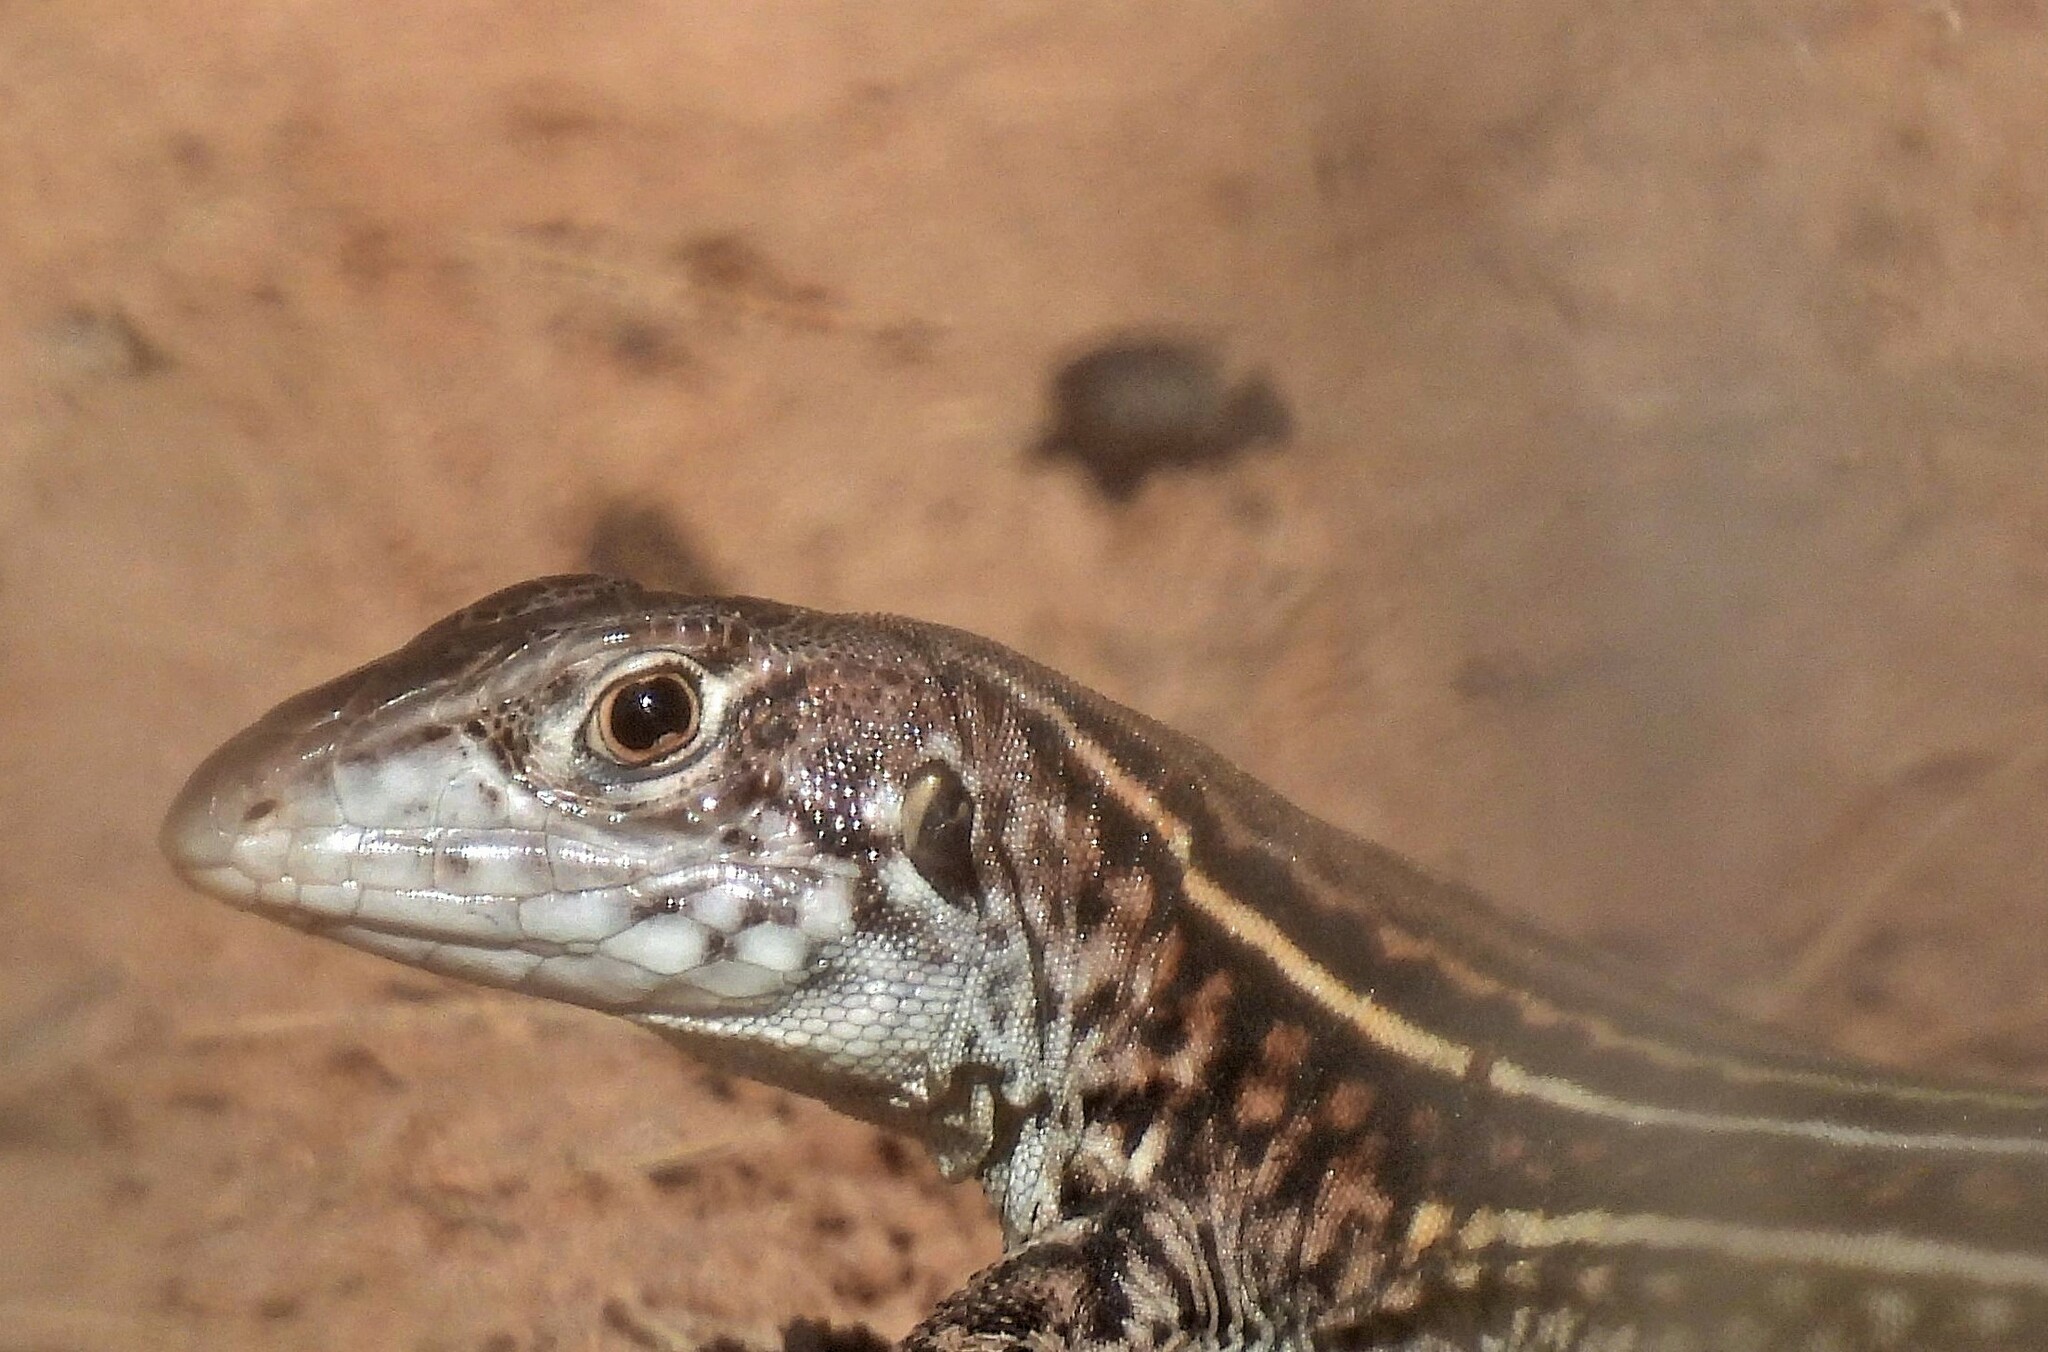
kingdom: Animalia
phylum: Chordata
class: Squamata
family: Teiidae
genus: Teius
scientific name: Teius teyou
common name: Four-toed tegu
